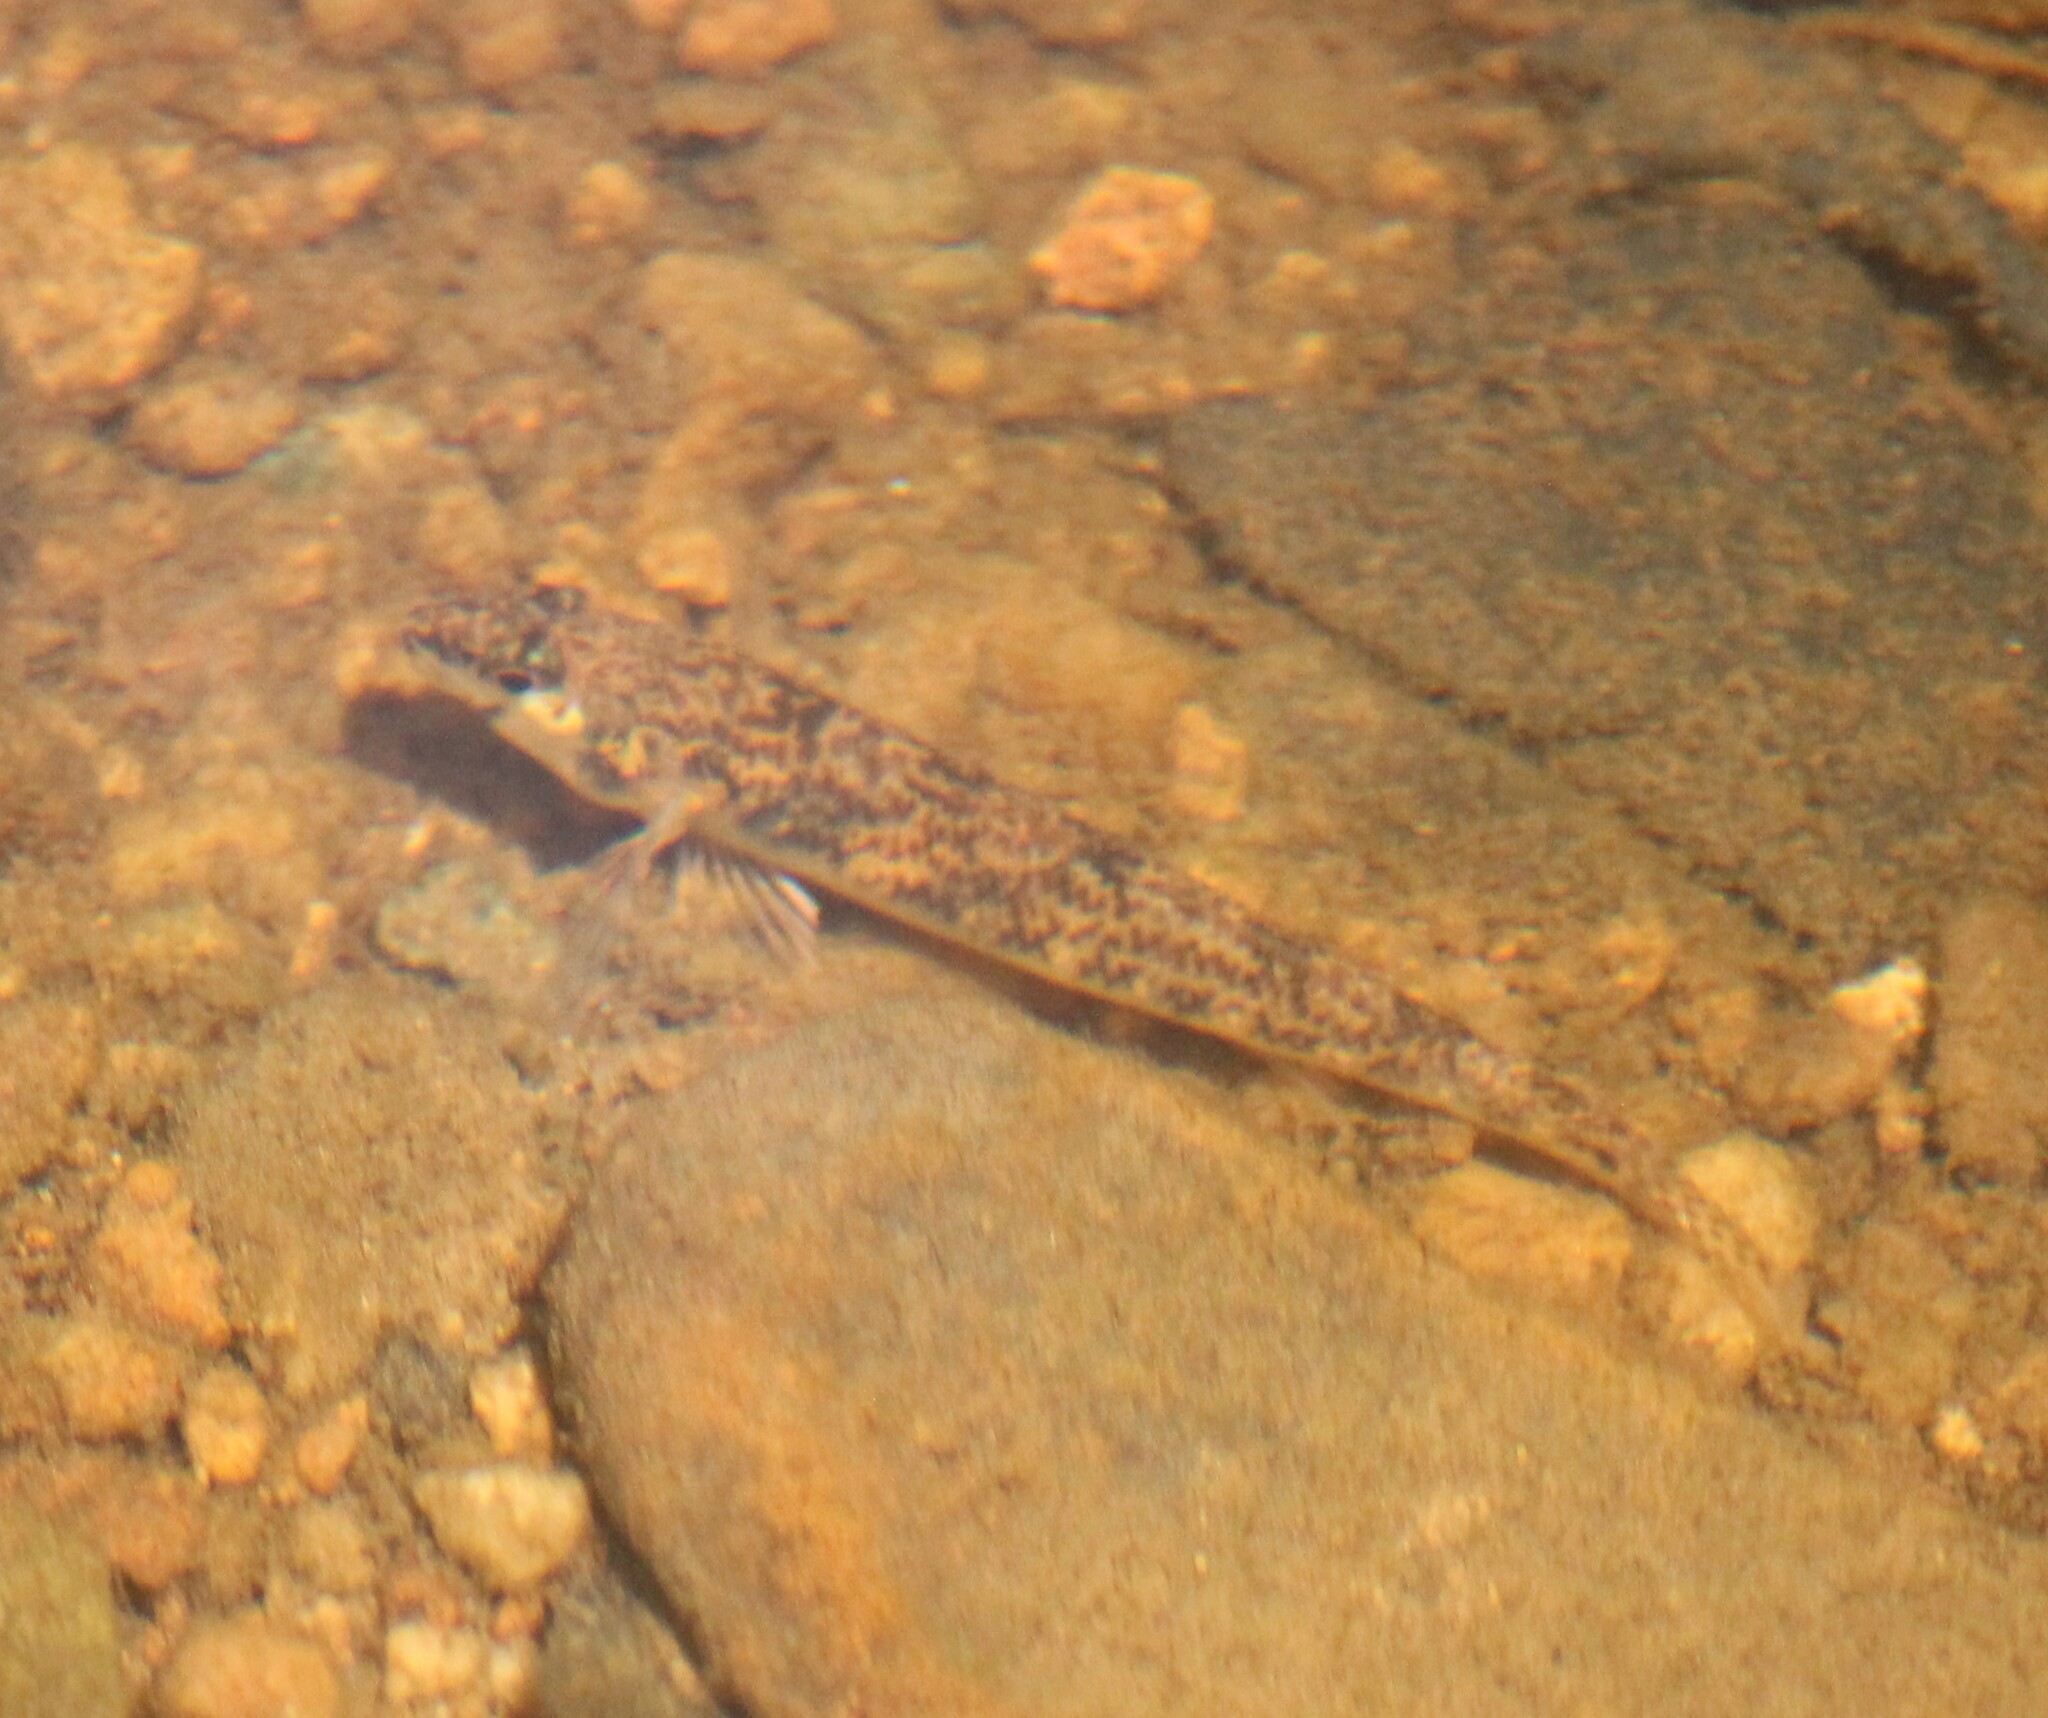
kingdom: Animalia
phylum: Chordata
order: Perciformes
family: Percidae
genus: Etheostoma
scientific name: Etheostoma olmstedi
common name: Tessellated darter
